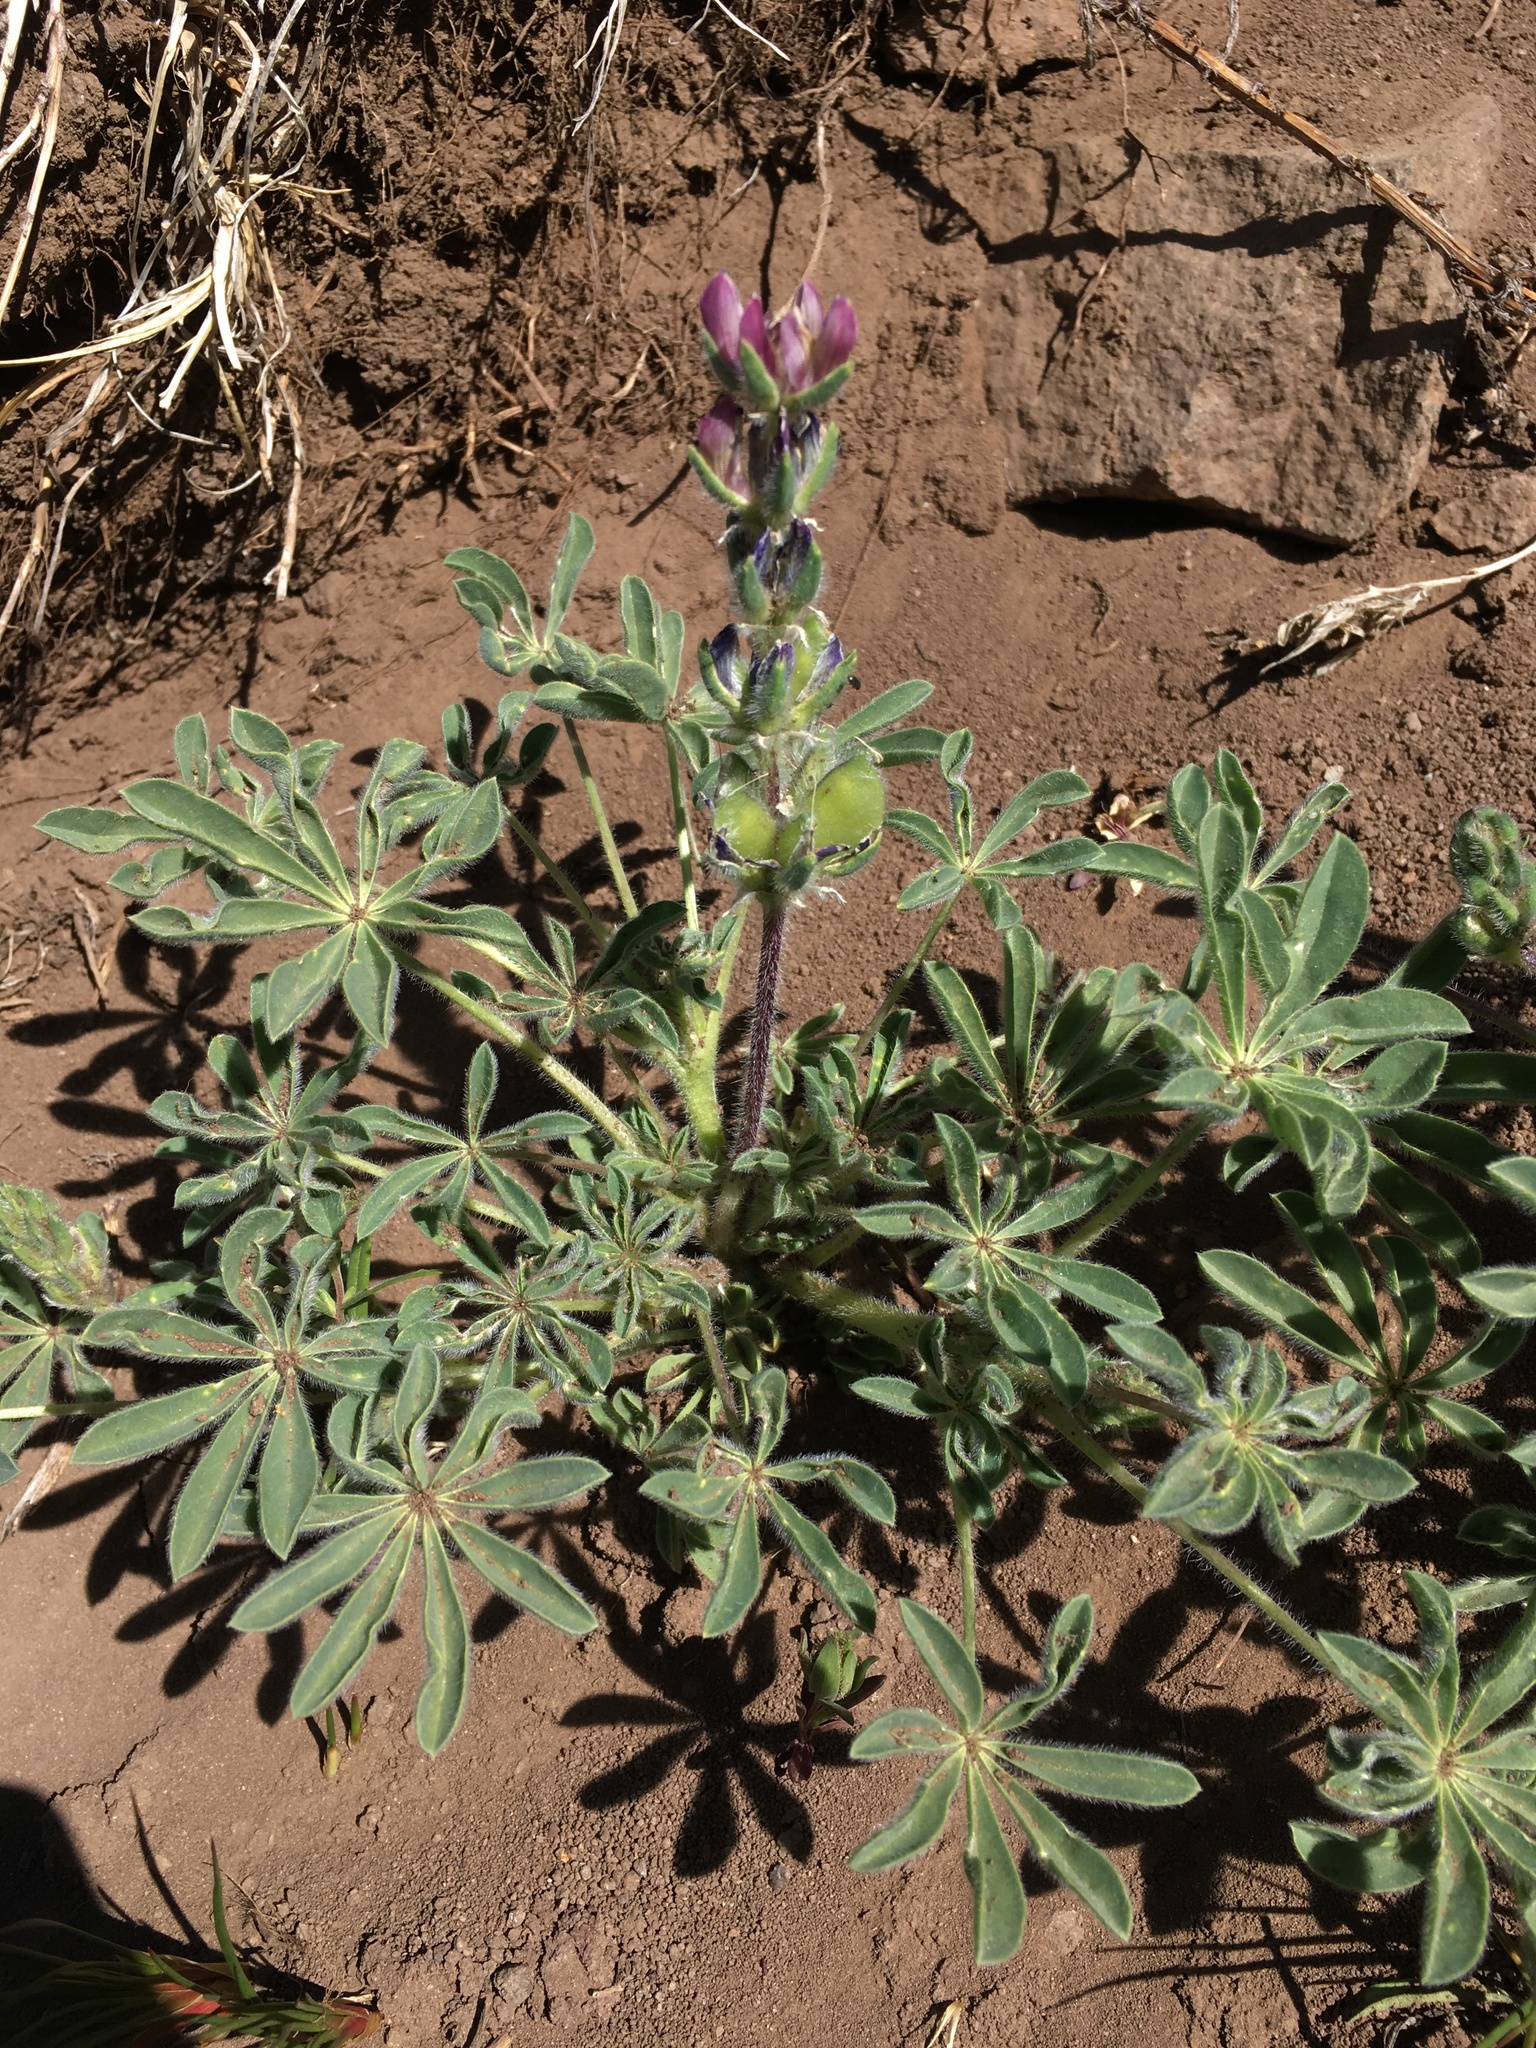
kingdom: Plantae
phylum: Tracheophyta
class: Magnoliopsida
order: Fabales
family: Fabaceae
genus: Lupinus
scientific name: Lupinus microcarpus
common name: Chick lupine
